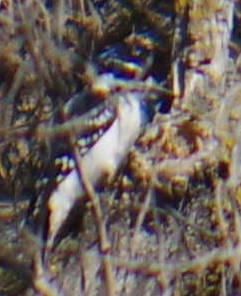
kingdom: Animalia
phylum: Chordata
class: Aves
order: Piciformes
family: Picidae
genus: Leuconotopicus
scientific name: Leuconotopicus villosus
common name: Hairy woodpecker
